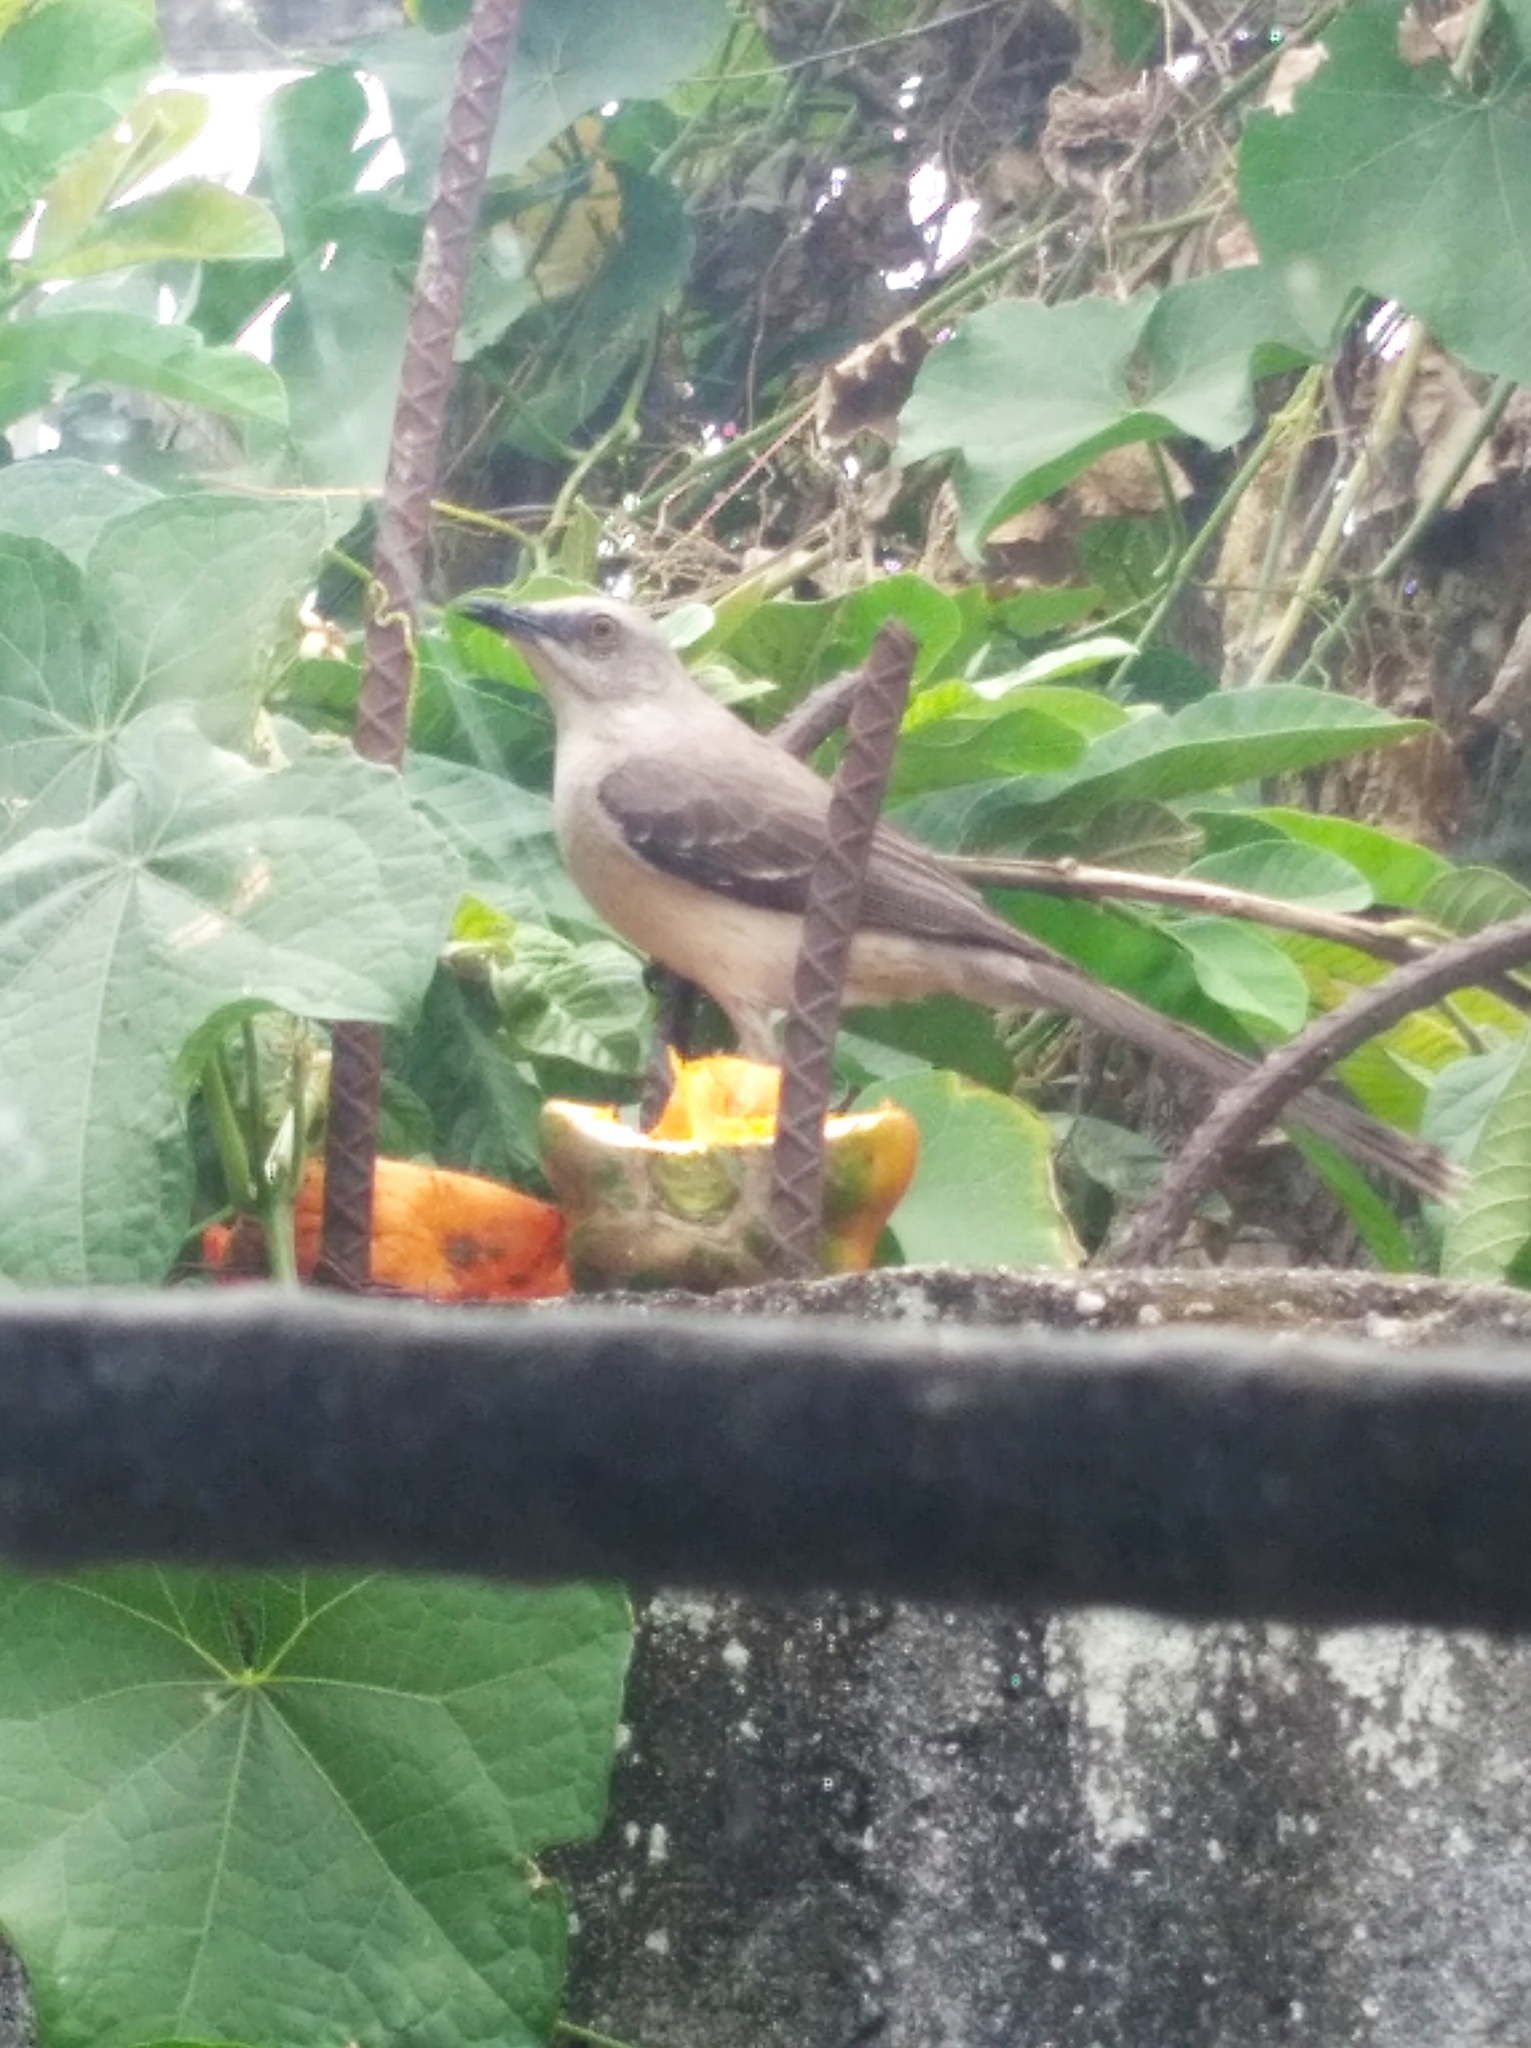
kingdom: Animalia
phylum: Chordata
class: Aves
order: Passeriformes
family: Mimidae
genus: Mimus
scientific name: Mimus gilvus
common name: Tropical mockingbird
